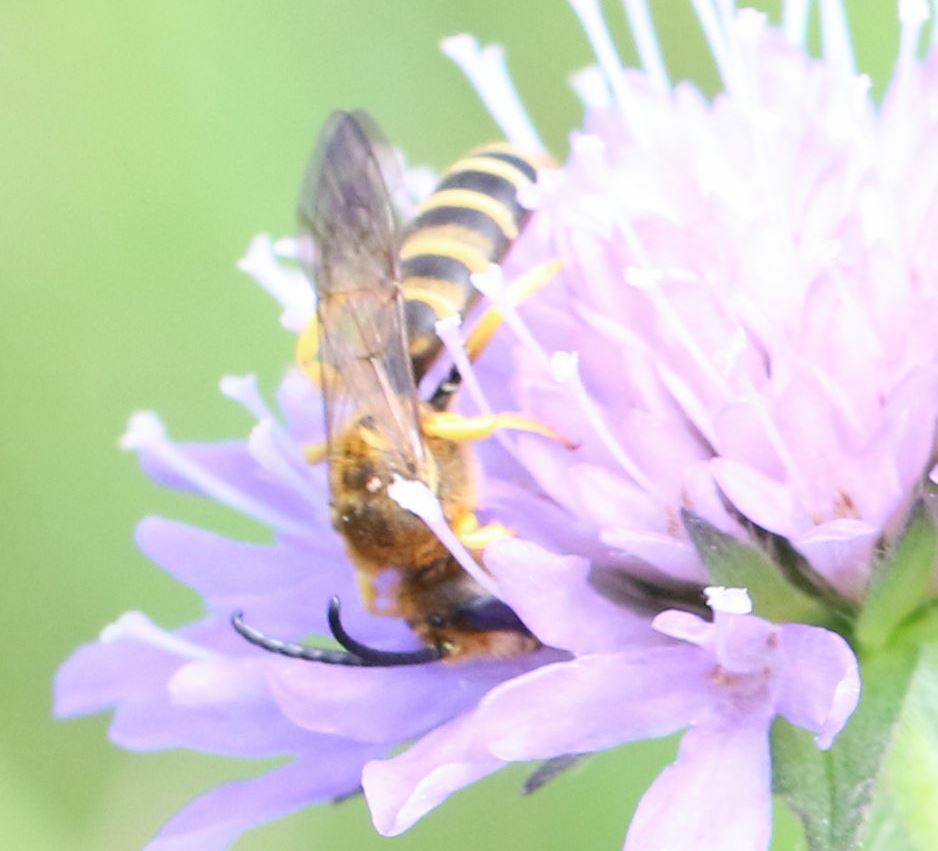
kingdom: Animalia
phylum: Arthropoda
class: Insecta
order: Hymenoptera
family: Halictidae
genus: Halictus
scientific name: Halictus scabiosae
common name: Great banded furrow bee
